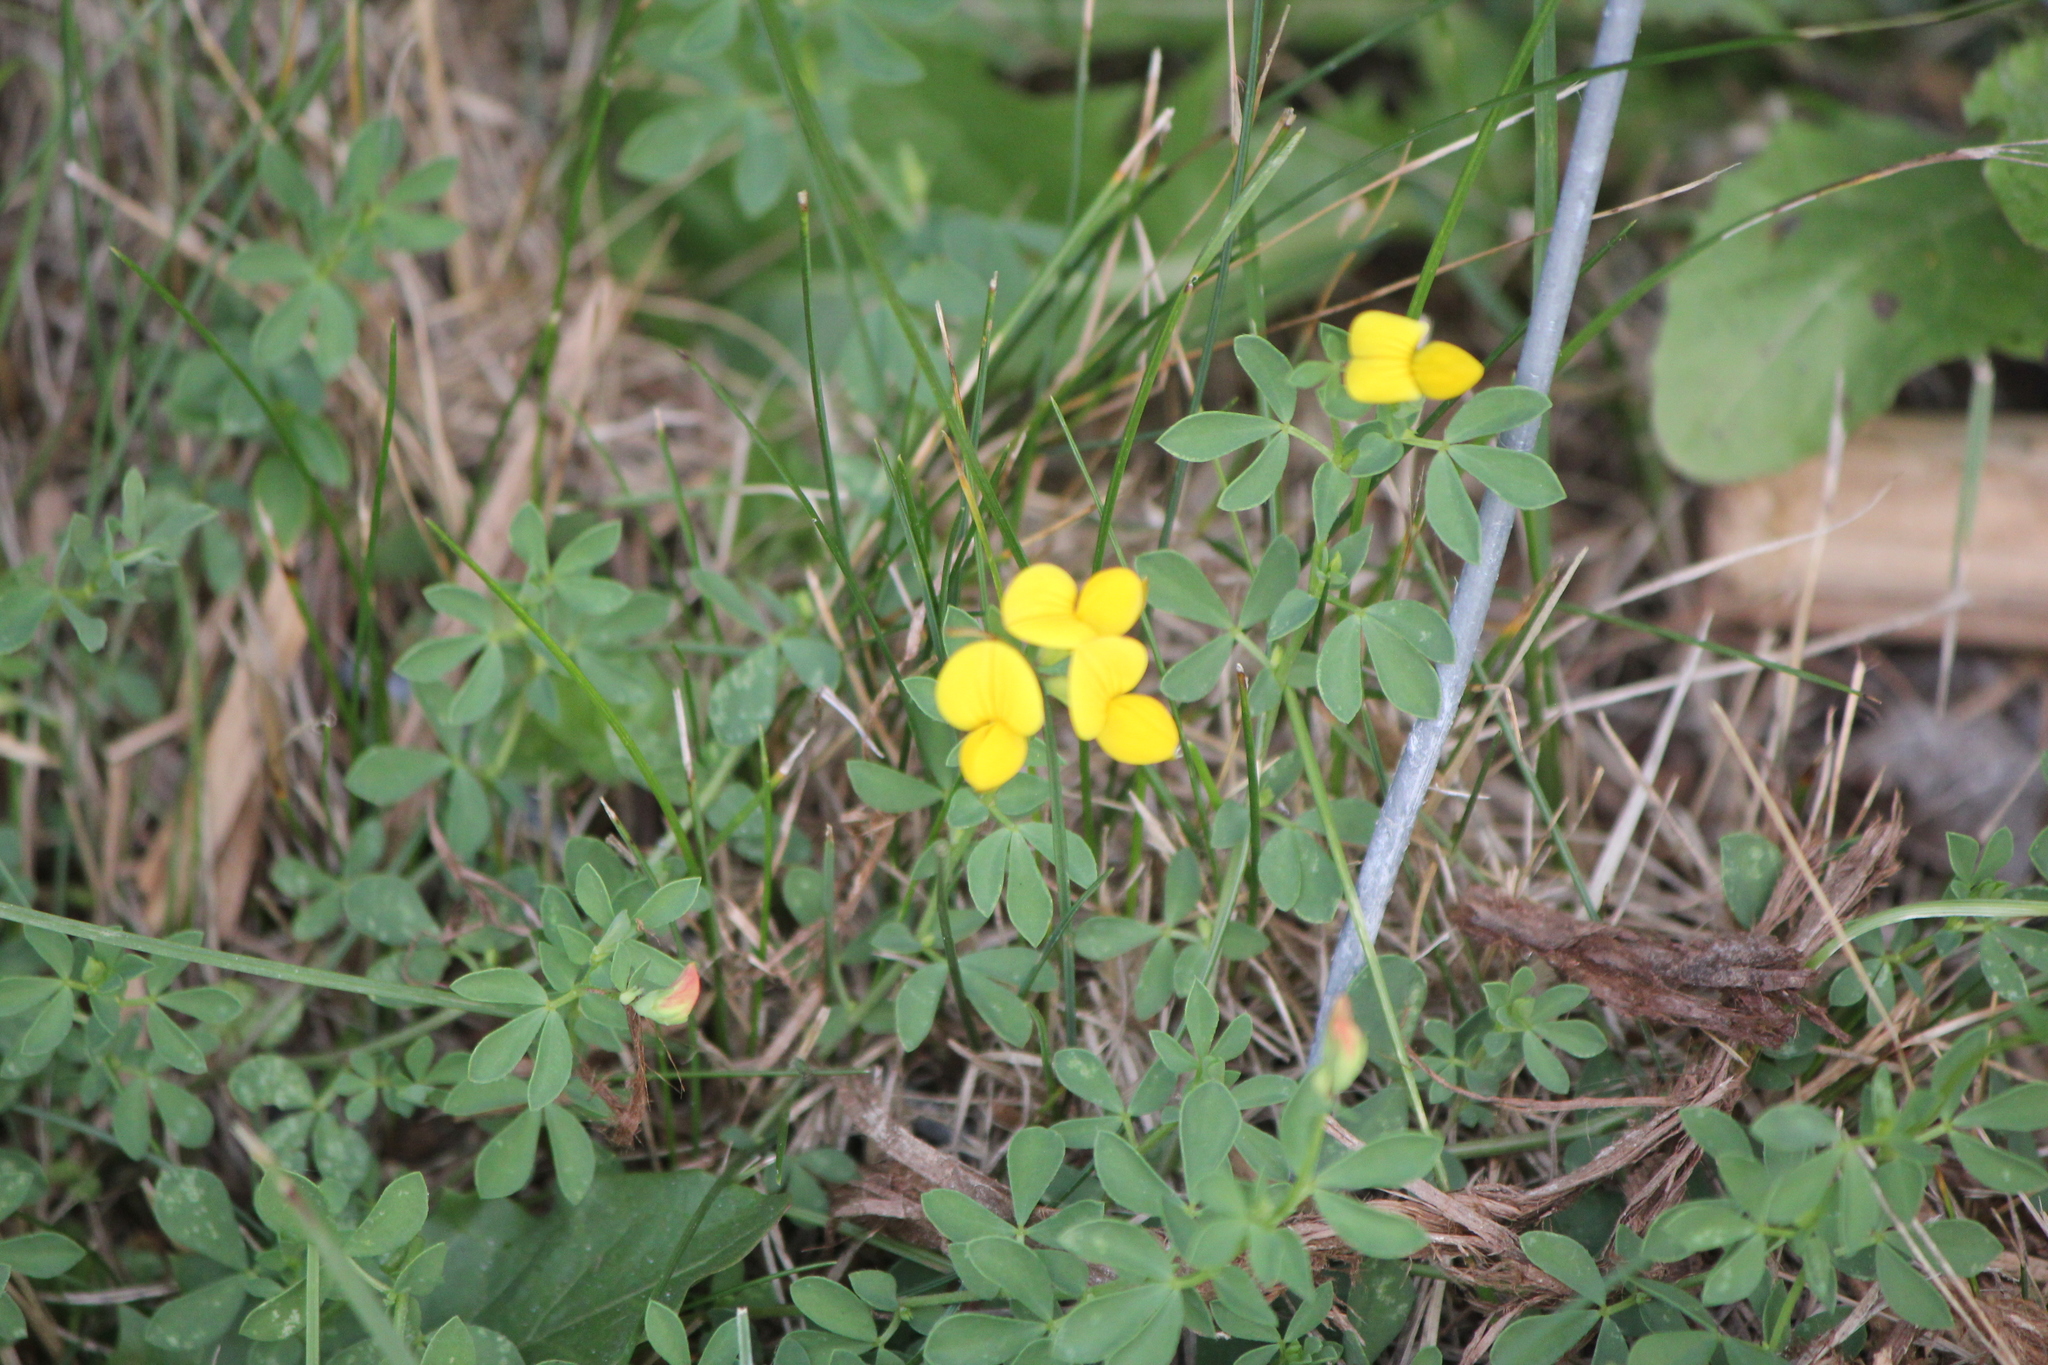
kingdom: Plantae
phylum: Tracheophyta
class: Magnoliopsida
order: Fabales
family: Fabaceae
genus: Lotus
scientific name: Lotus corniculatus
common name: Common bird's-foot-trefoil
